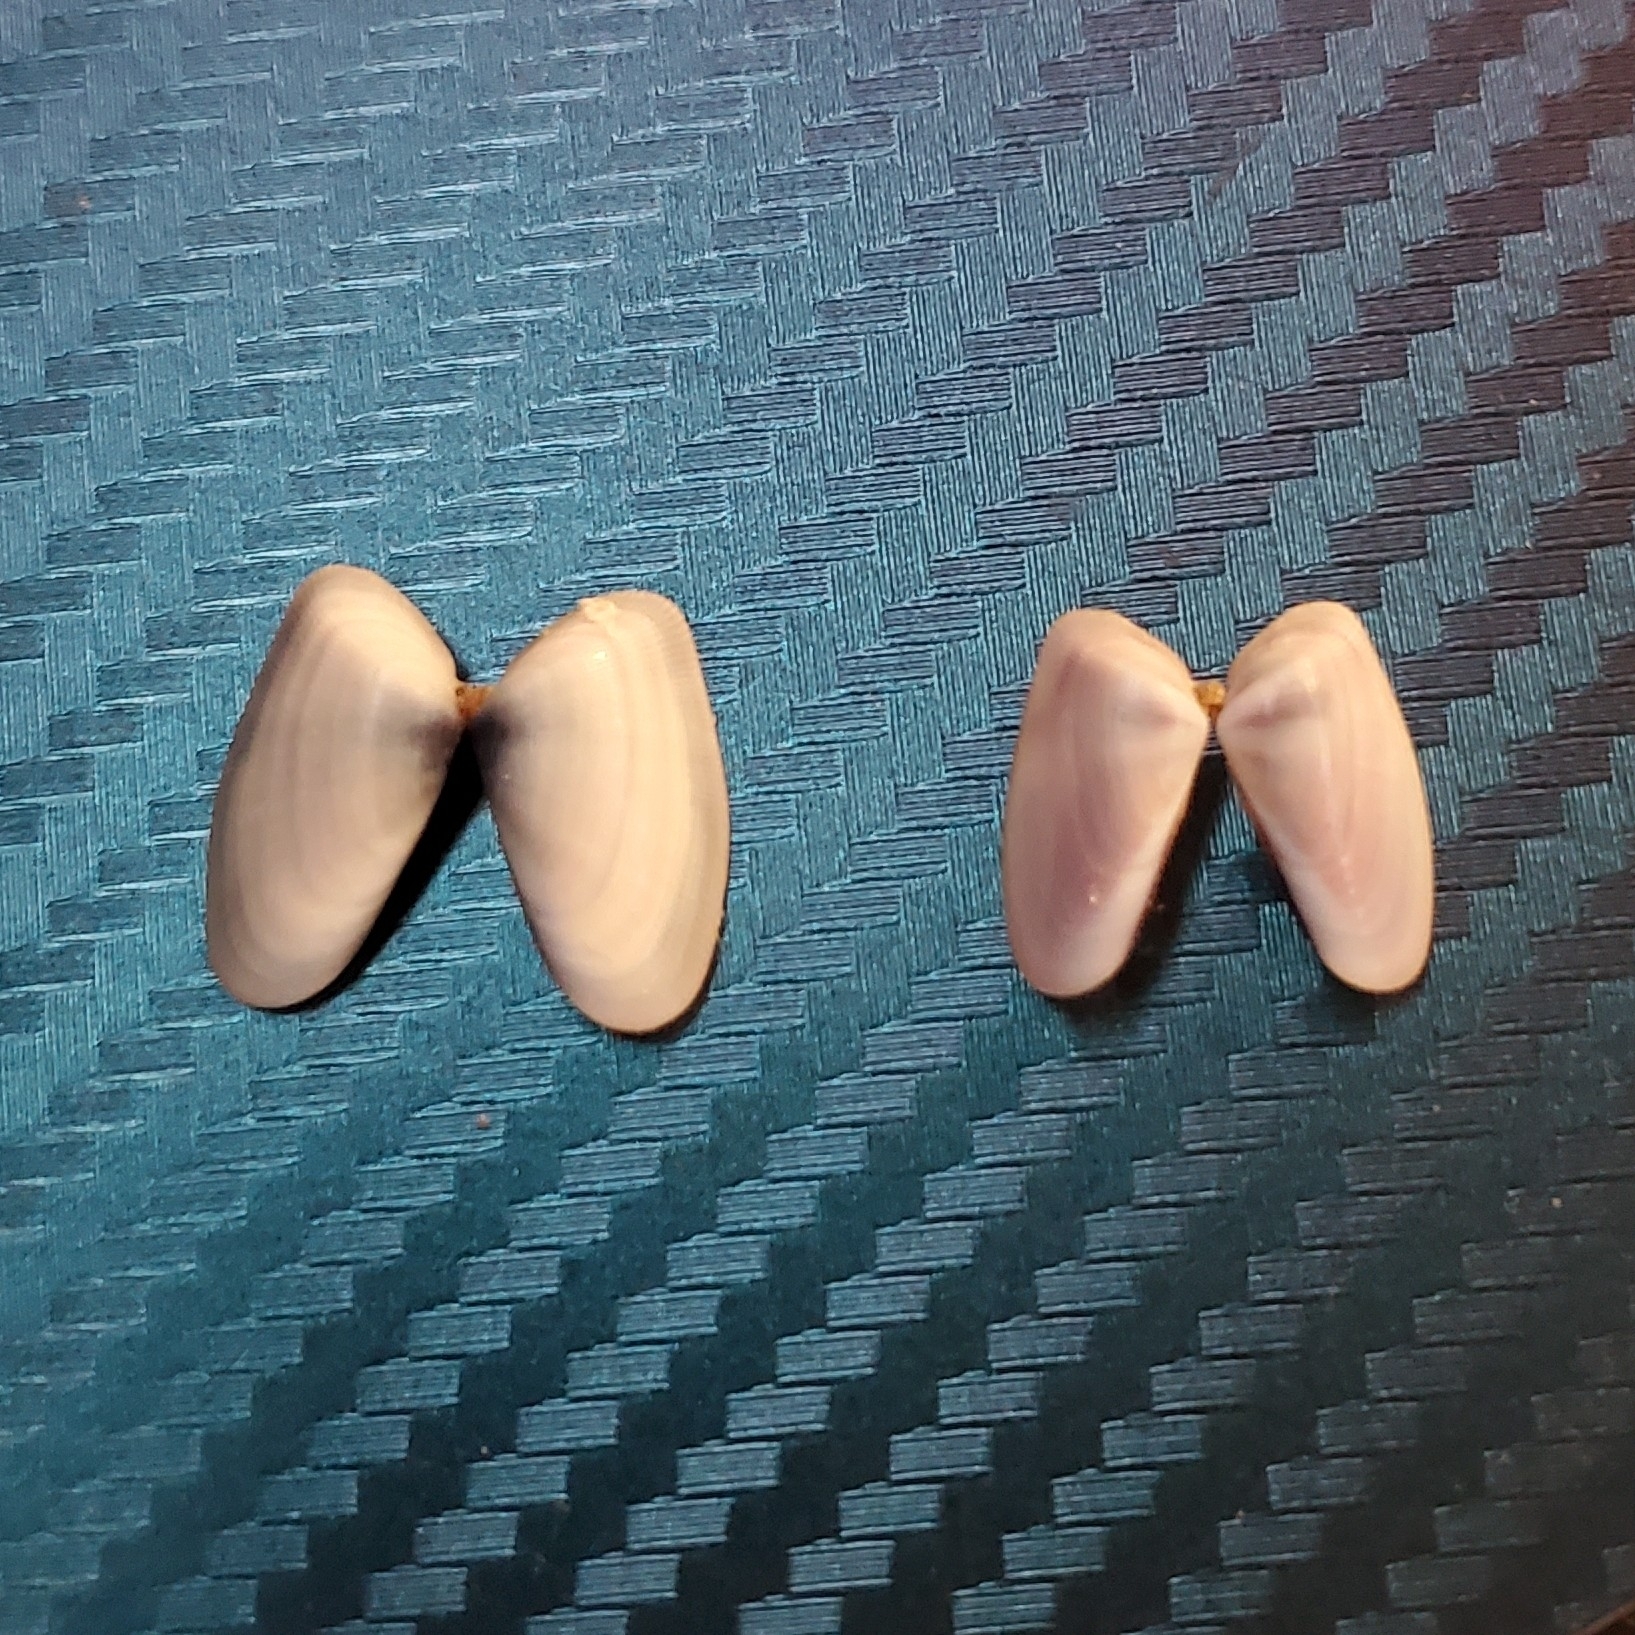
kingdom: Animalia
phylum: Mollusca
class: Bivalvia
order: Cardiida
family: Donacidae
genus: Donax
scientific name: Donax variabilis
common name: Butterfly shell
